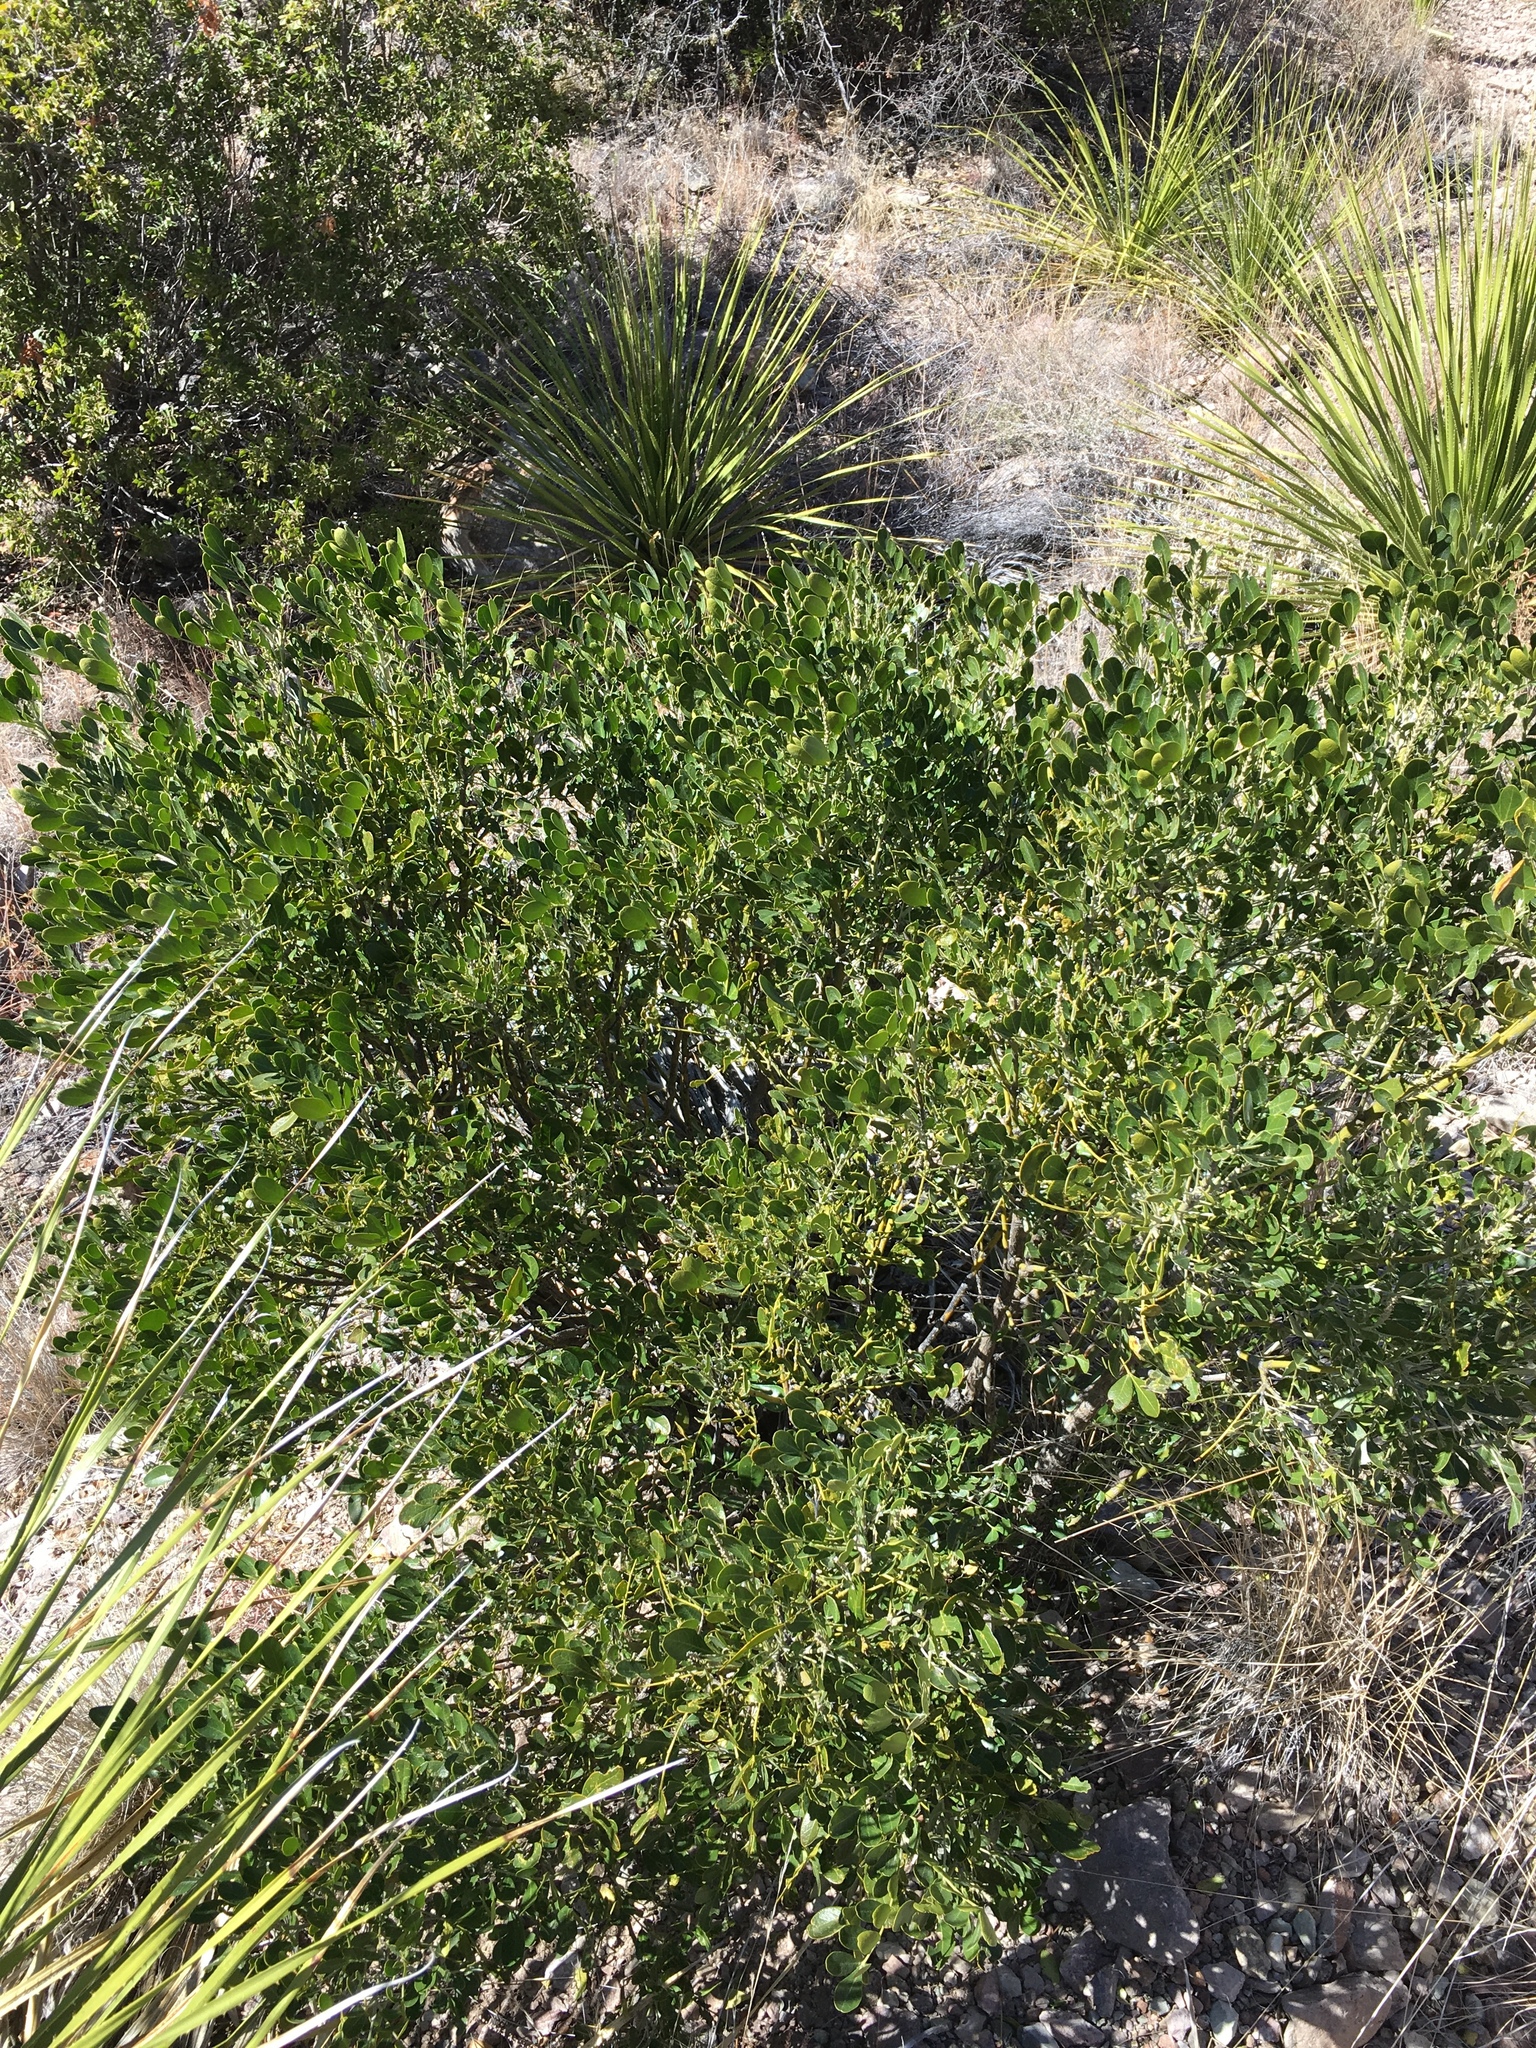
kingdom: Plantae
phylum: Tracheophyta
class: Magnoliopsida
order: Fabales
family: Fabaceae
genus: Dermatophyllum
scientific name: Dermatophyllum secundiflorum
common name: Texas-mountain-laurel
